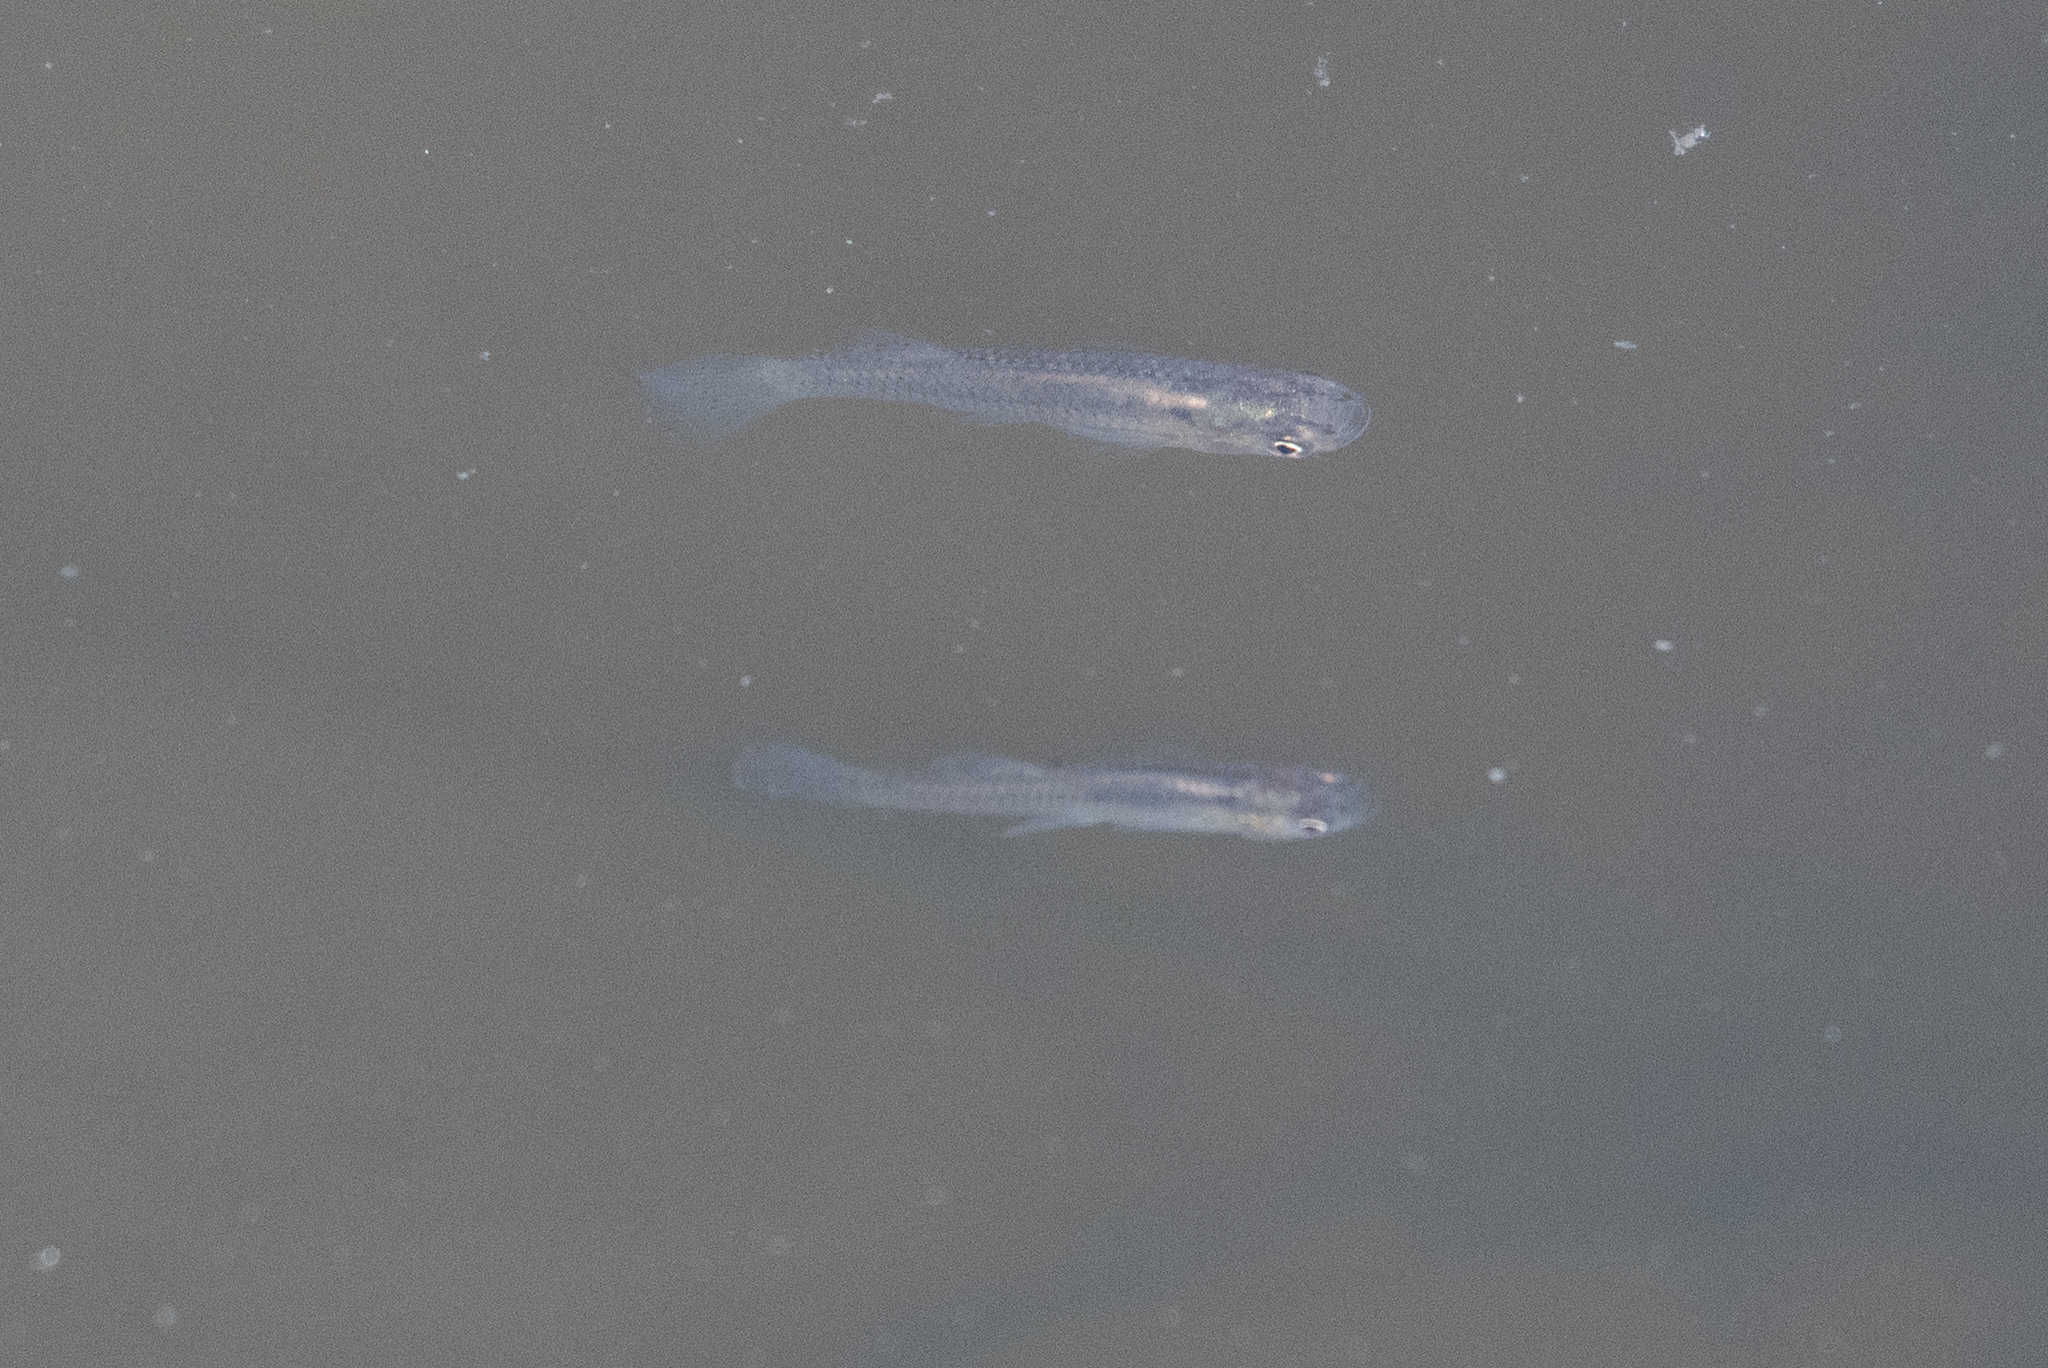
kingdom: Animalia
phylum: Chordata
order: Cyprinodontiformes
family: Poeciliidae
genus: Gambusia
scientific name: Gambusia affinis
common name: Mosquitofish
